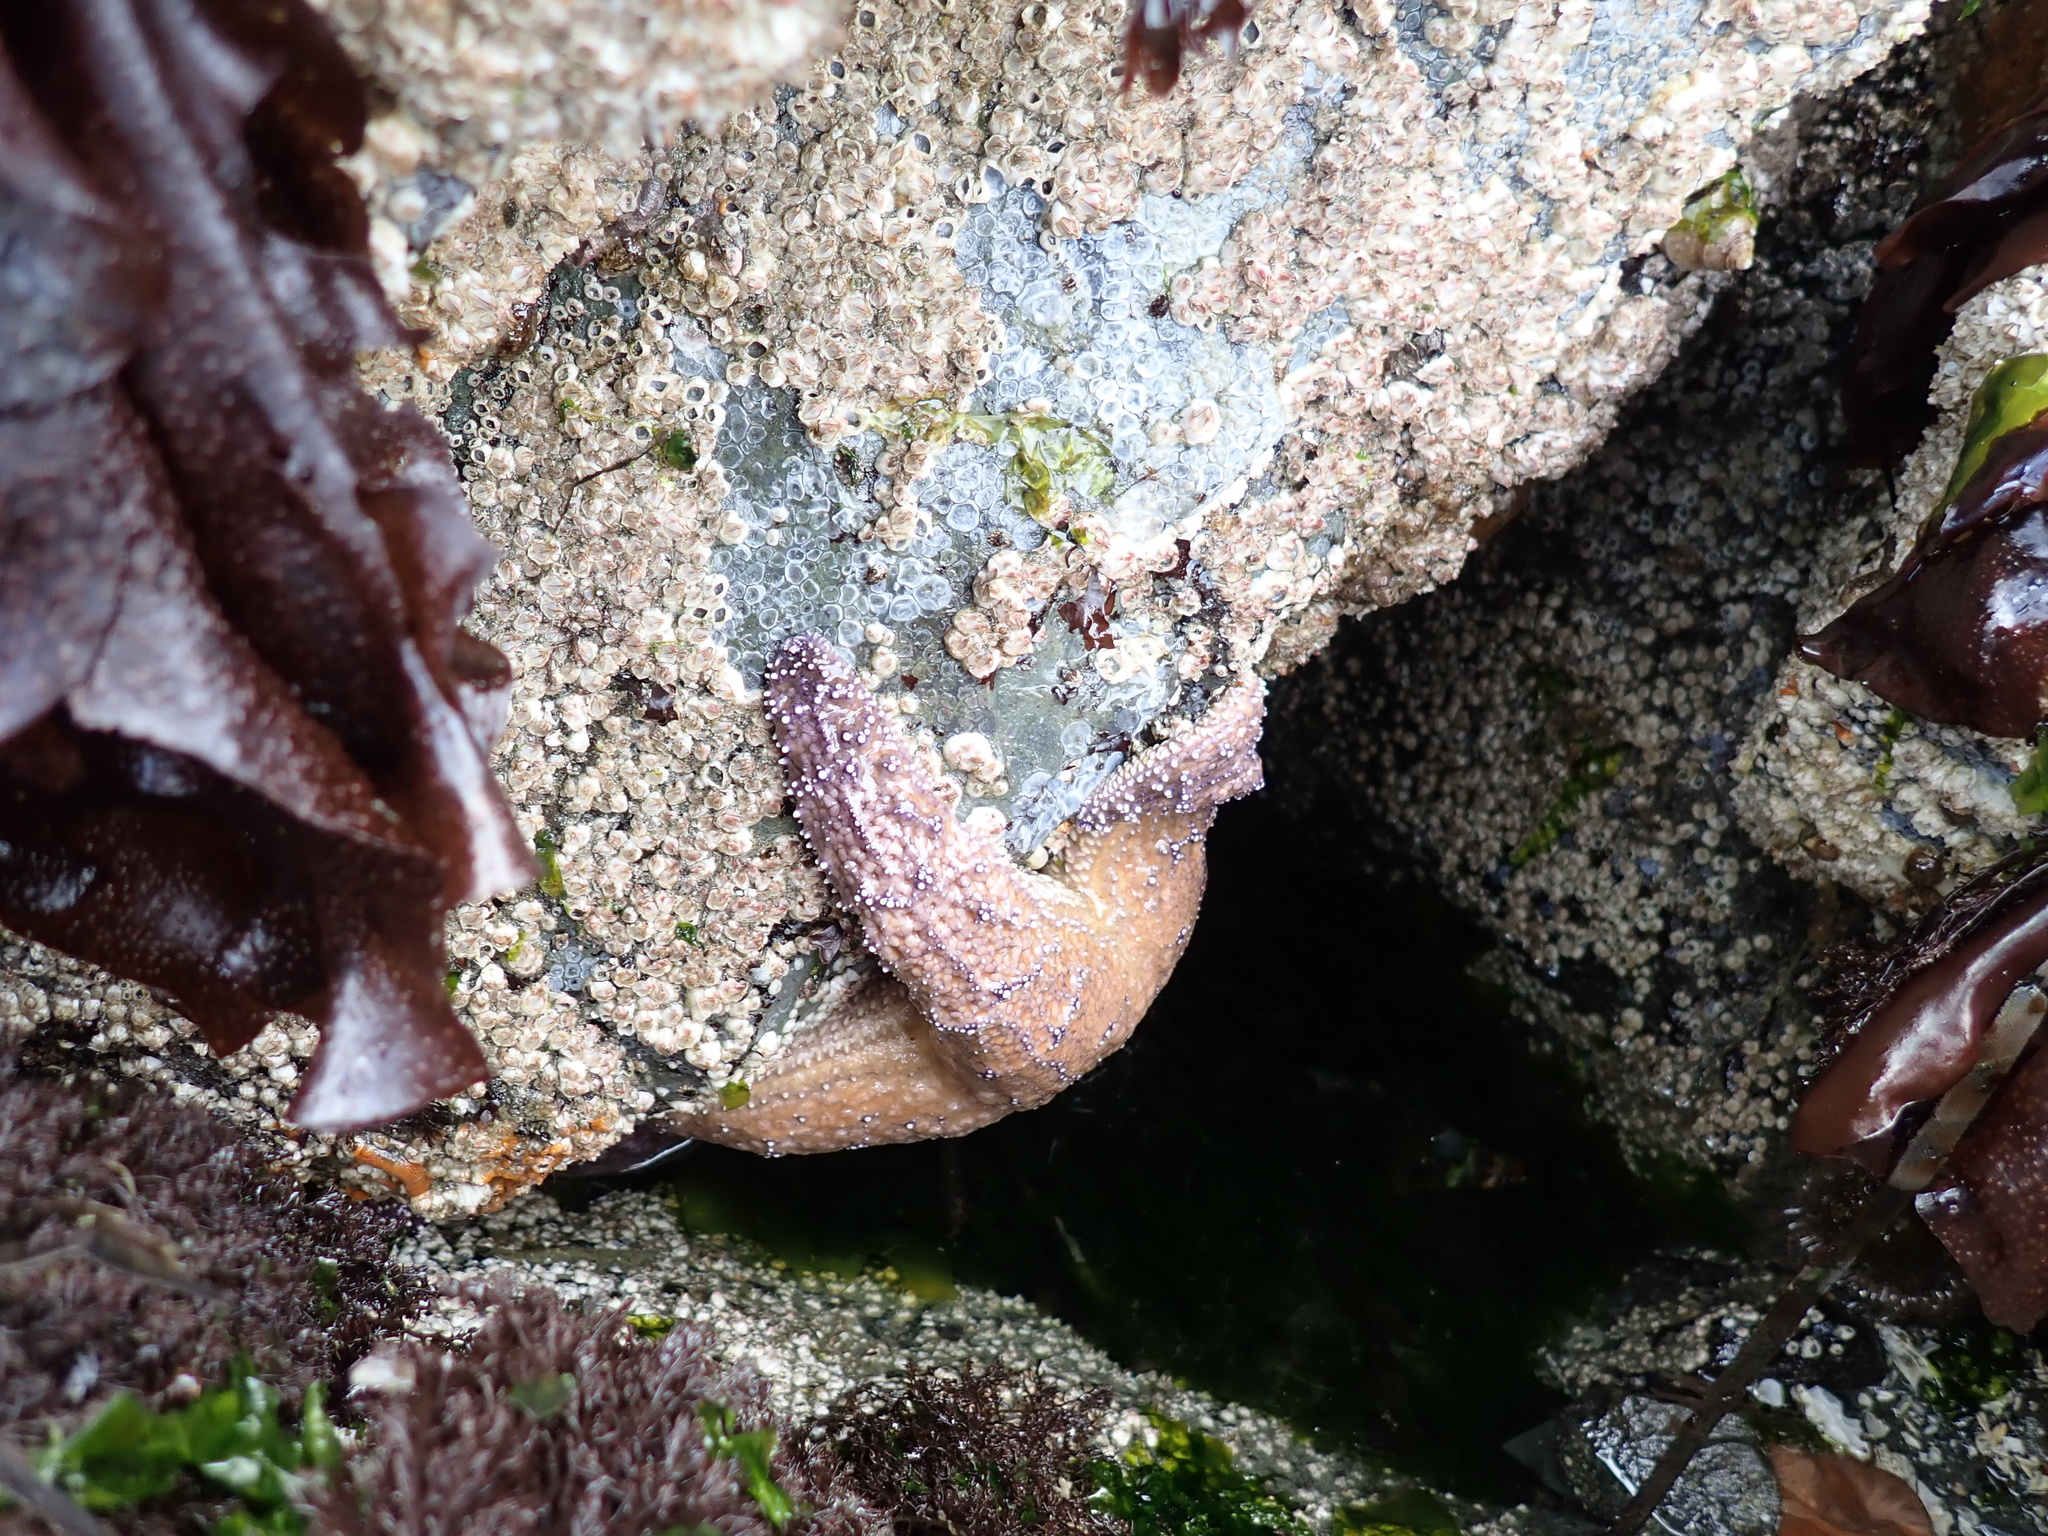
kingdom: Animalia
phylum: Echinodermata
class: Asteroidea
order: Forcipulatida
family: Asteriidae
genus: Pisaster
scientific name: Pisaster ochraceus
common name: Ochre stars
